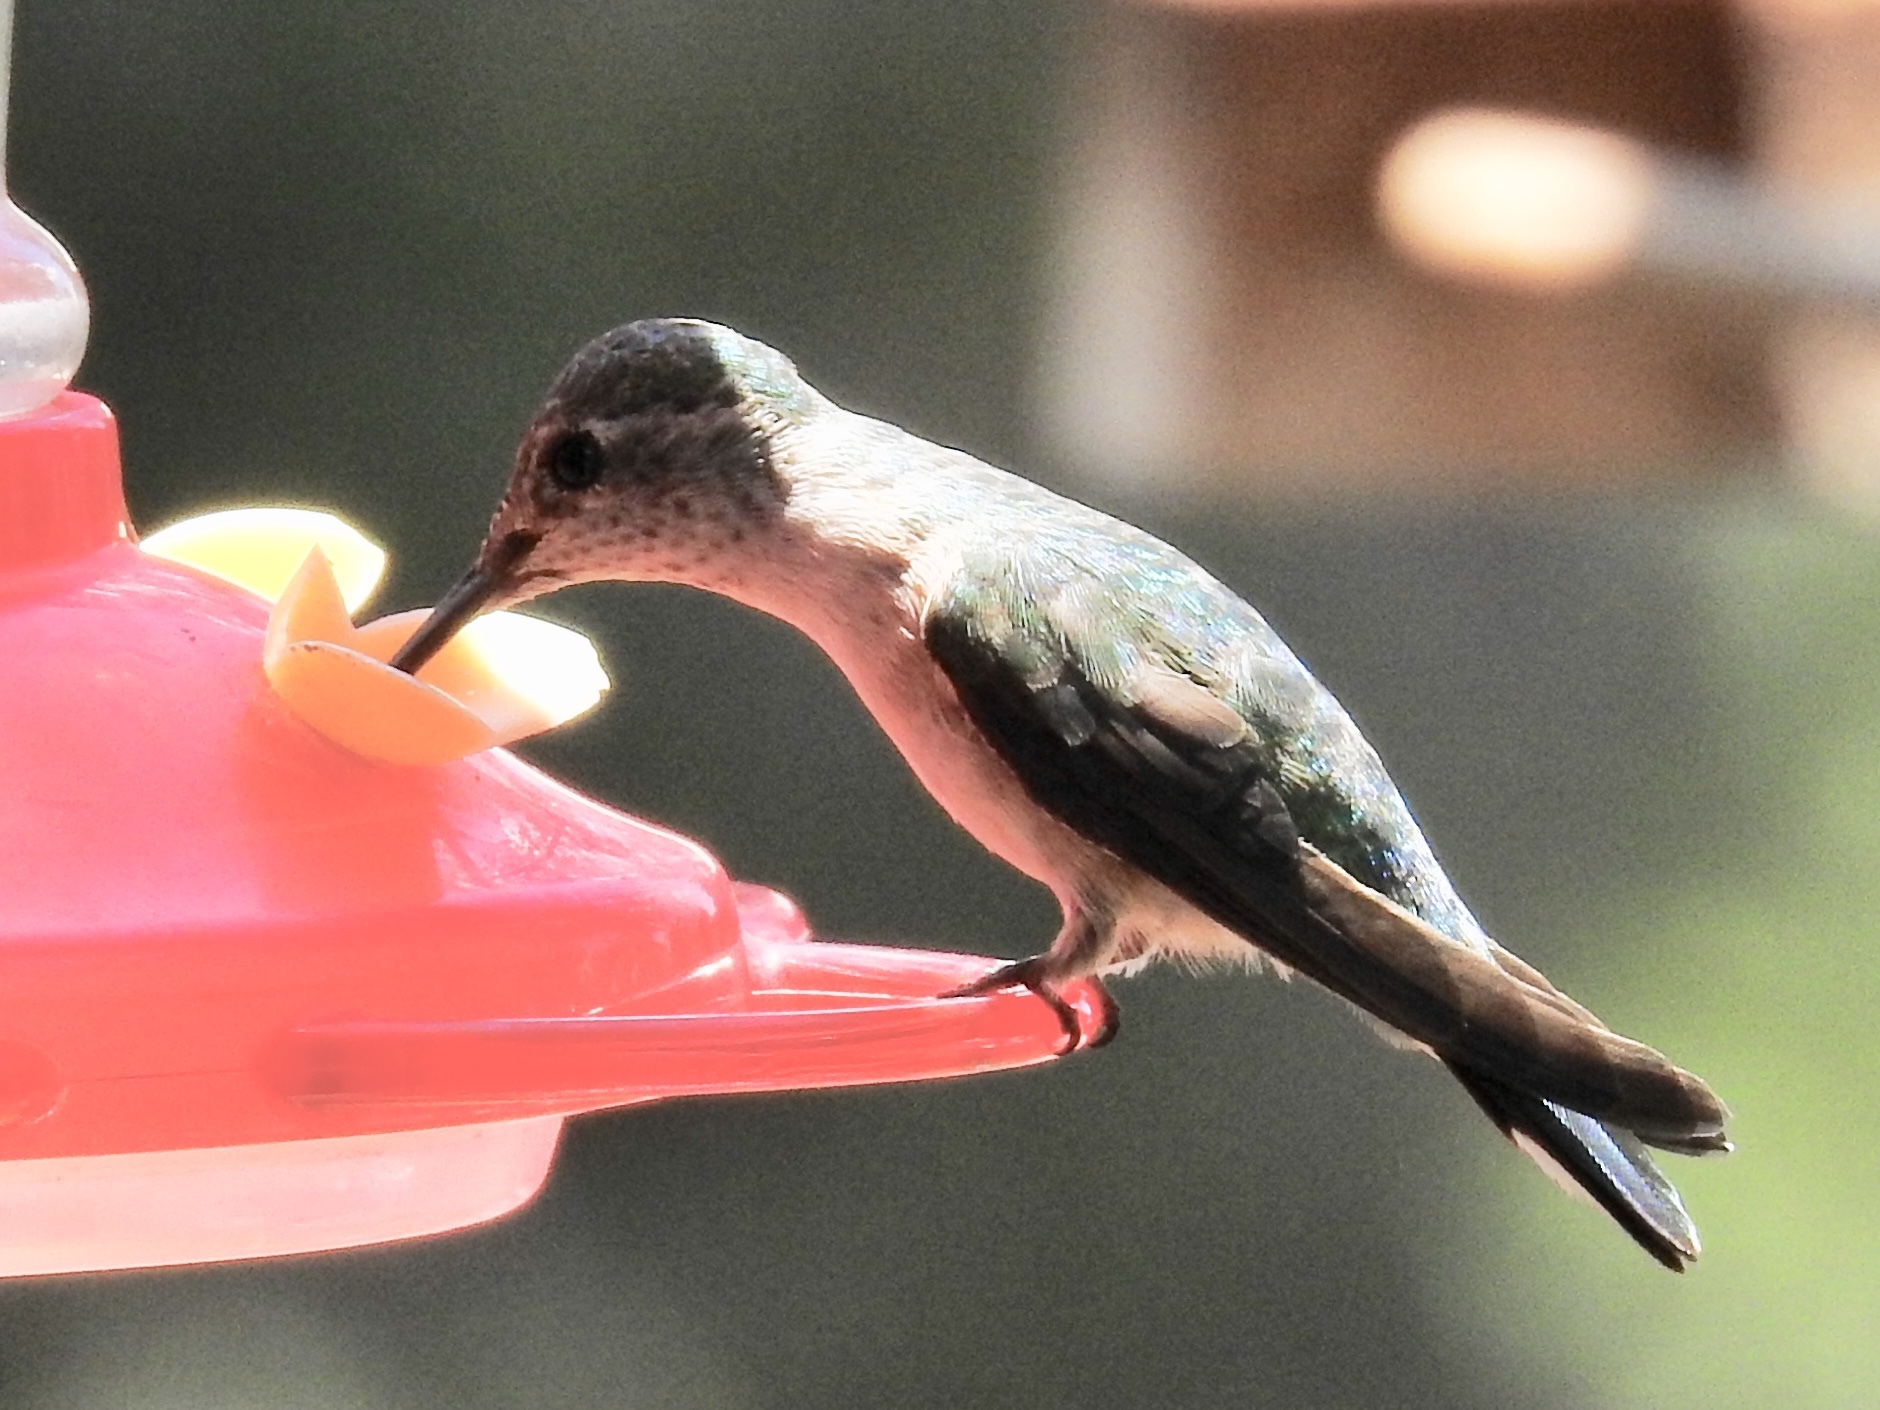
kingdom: Animalia
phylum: Chordata
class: Aves
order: Apodiformes
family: Trochilidae
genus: Selasphorus
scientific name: Selasphorus platycercus
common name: Broad-tailed hummingbird
